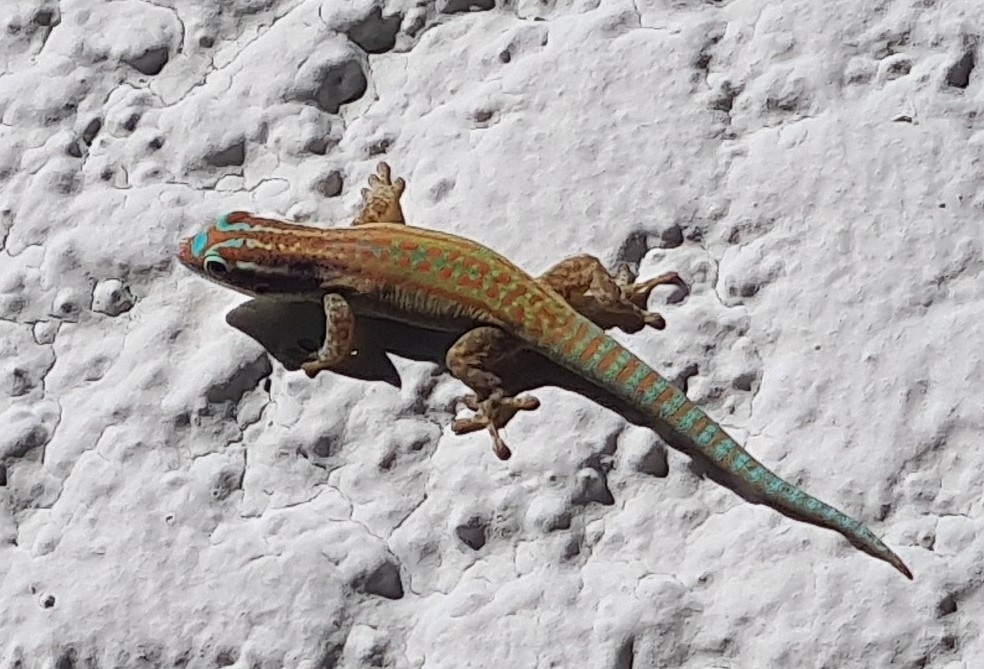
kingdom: Animalia
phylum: Chordata
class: Squamata
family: Gekkonidae
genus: Phelsuma
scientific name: Phelsuma ornata
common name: Ornate day gecko
